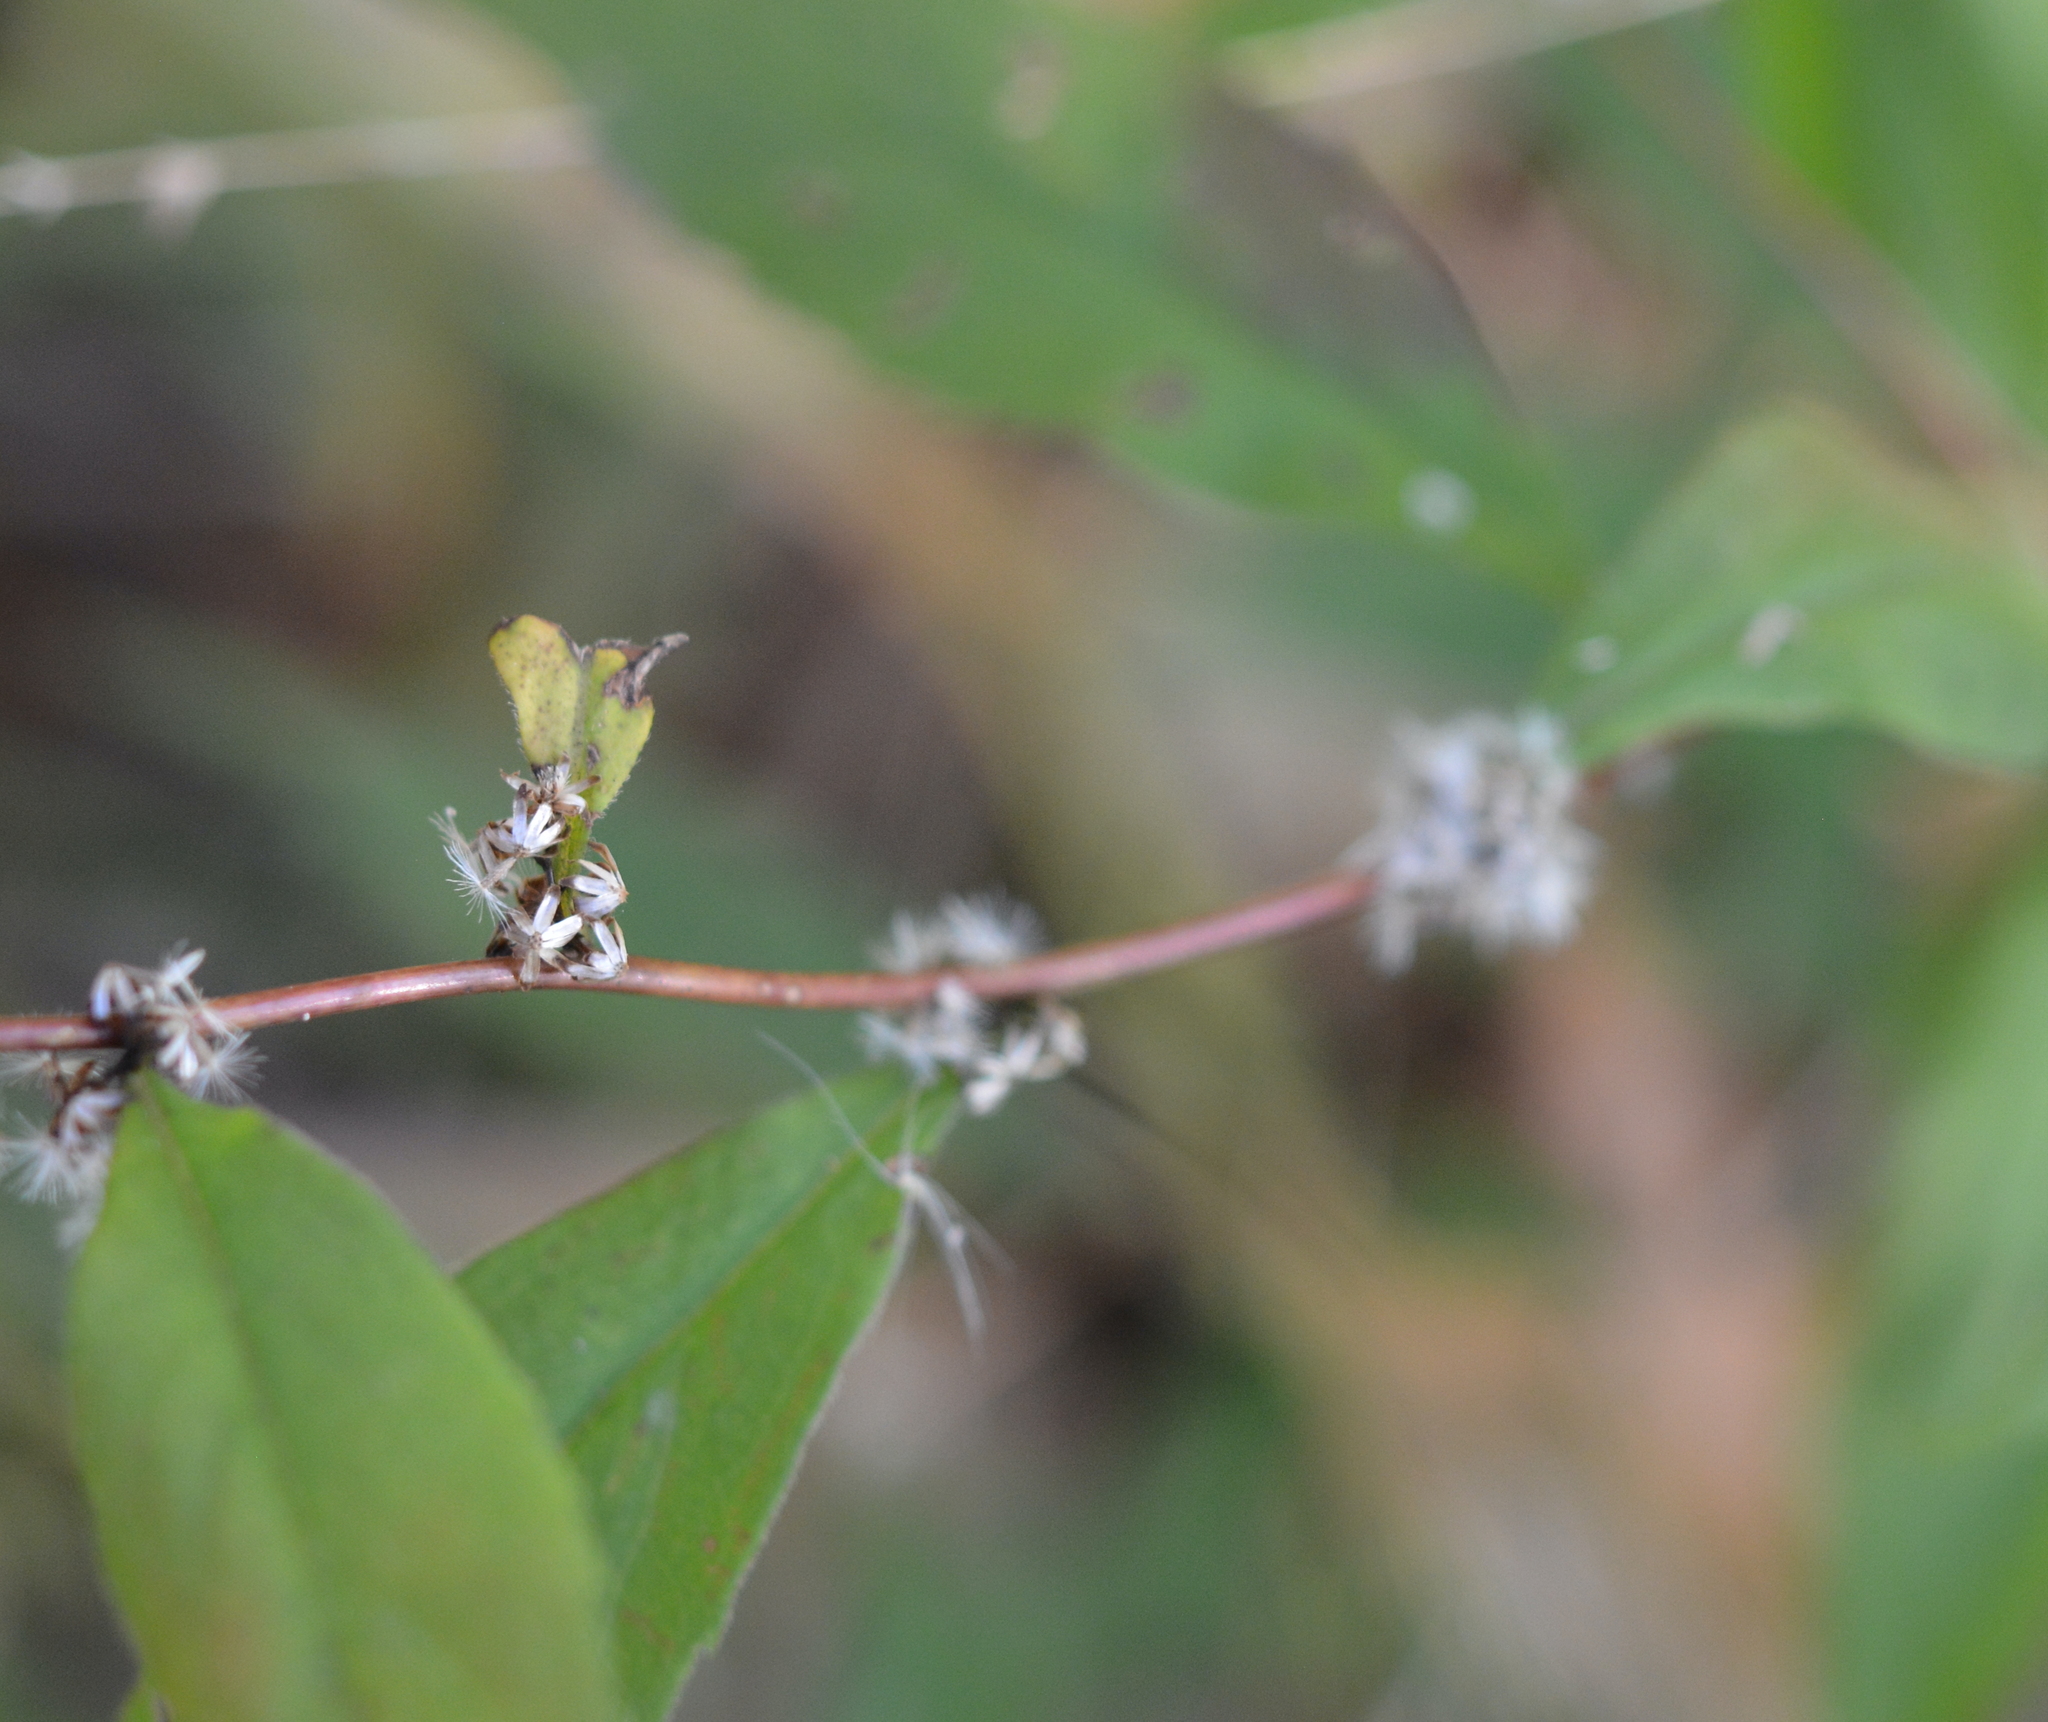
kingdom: Plantae
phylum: Tracheophyta
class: Magnoliopsida
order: Asterales
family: Asteraceae
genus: Solidago
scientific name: Solidago caesia
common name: Woodland goldenrod
